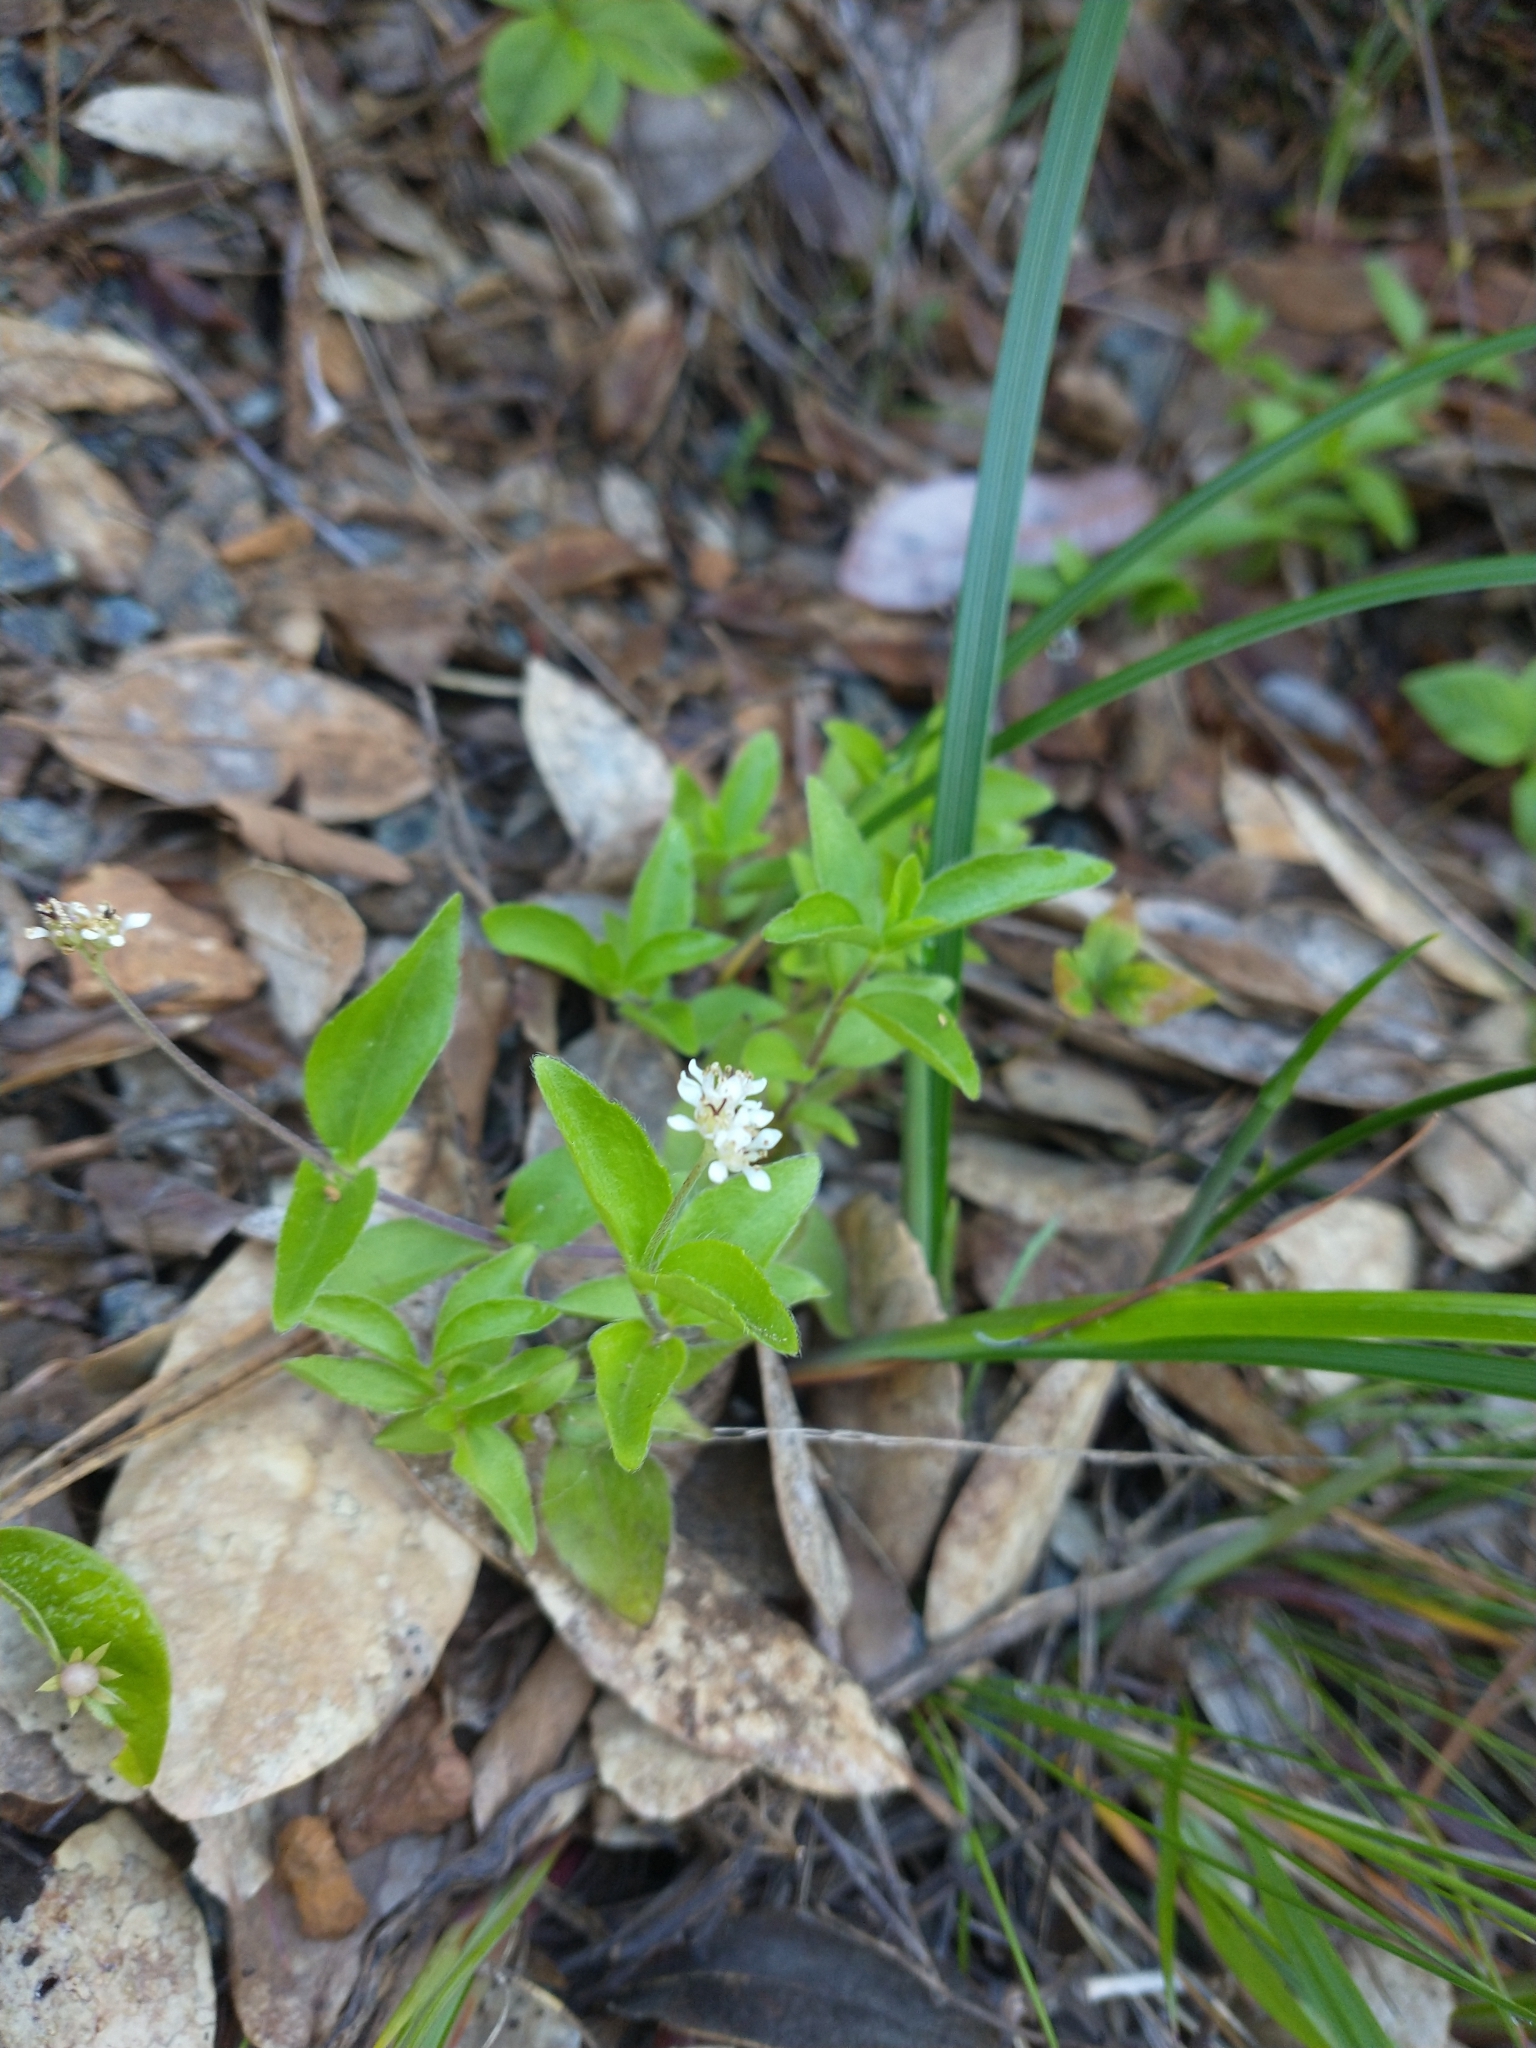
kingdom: Plantae
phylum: Tracheophyta
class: Magnoliopsida
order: Cornales
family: Hydrangeaceae
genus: Whipplea
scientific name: Whipplea modesta
